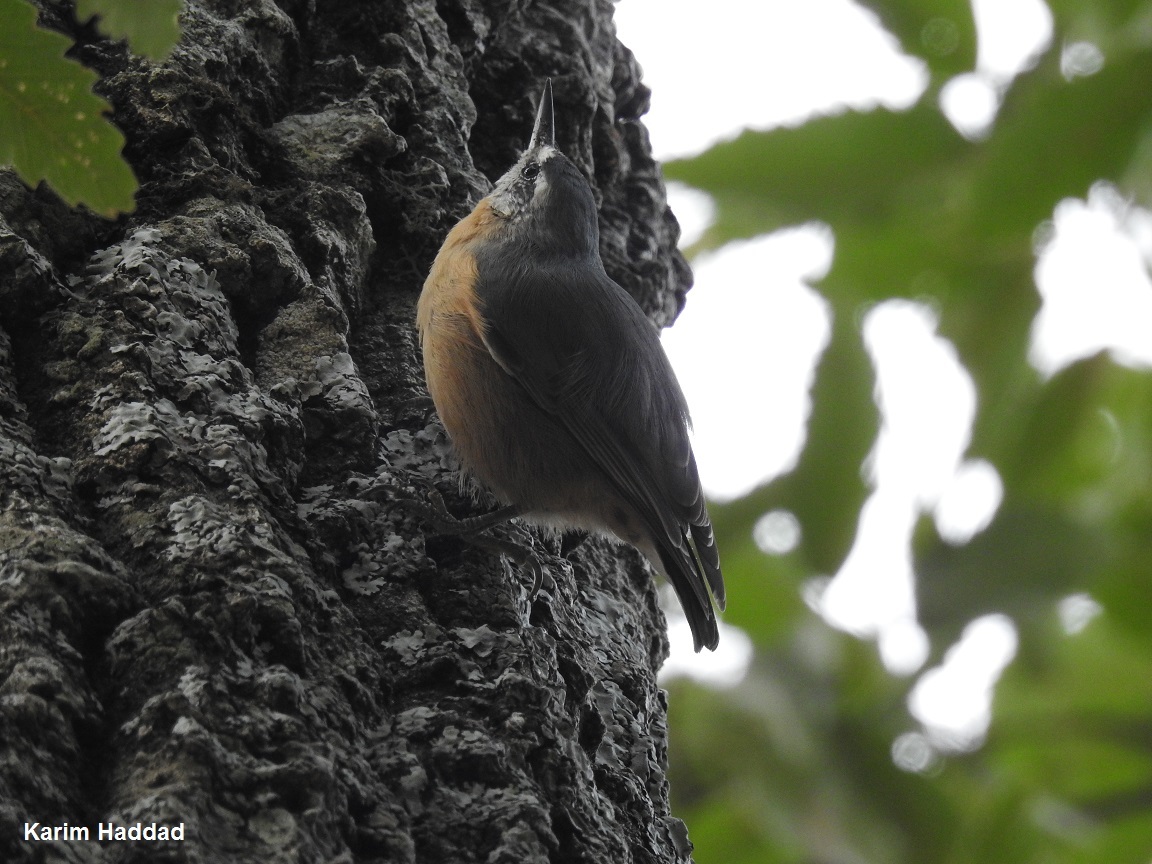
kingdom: Animalia
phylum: Chordata
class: Aves
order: Passeriformes
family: Sittidae
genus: Sitta
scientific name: Sitta ledanti
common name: Algerian nuthatch
